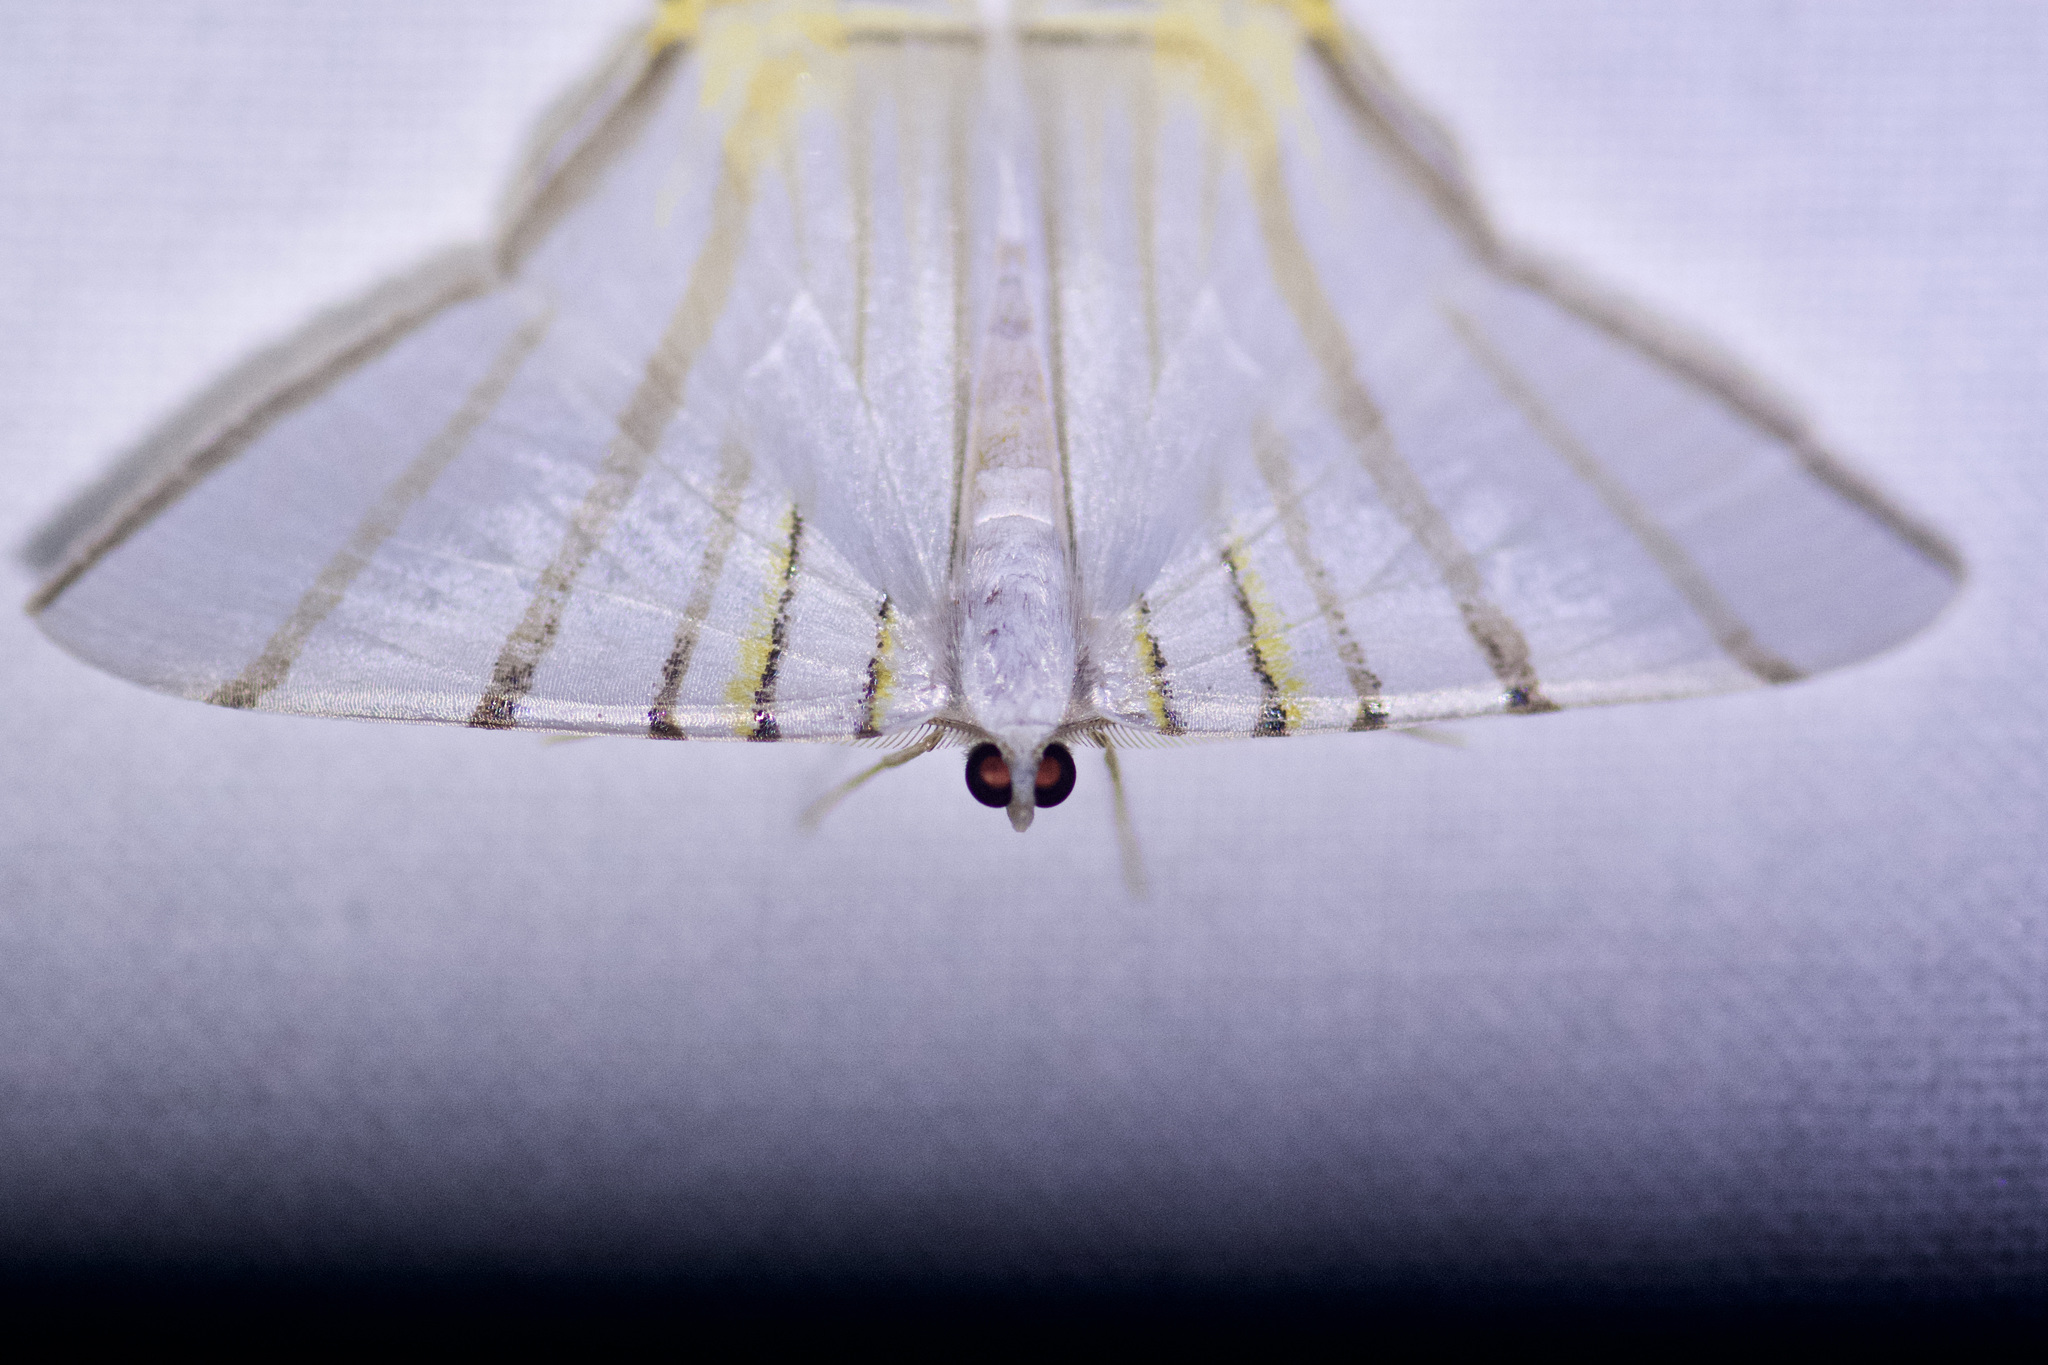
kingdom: Animalia
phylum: Arthropoda
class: Insecta
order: Lepidoptera
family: Geometridae
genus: Phrygionis
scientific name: Phrygionis platinata
